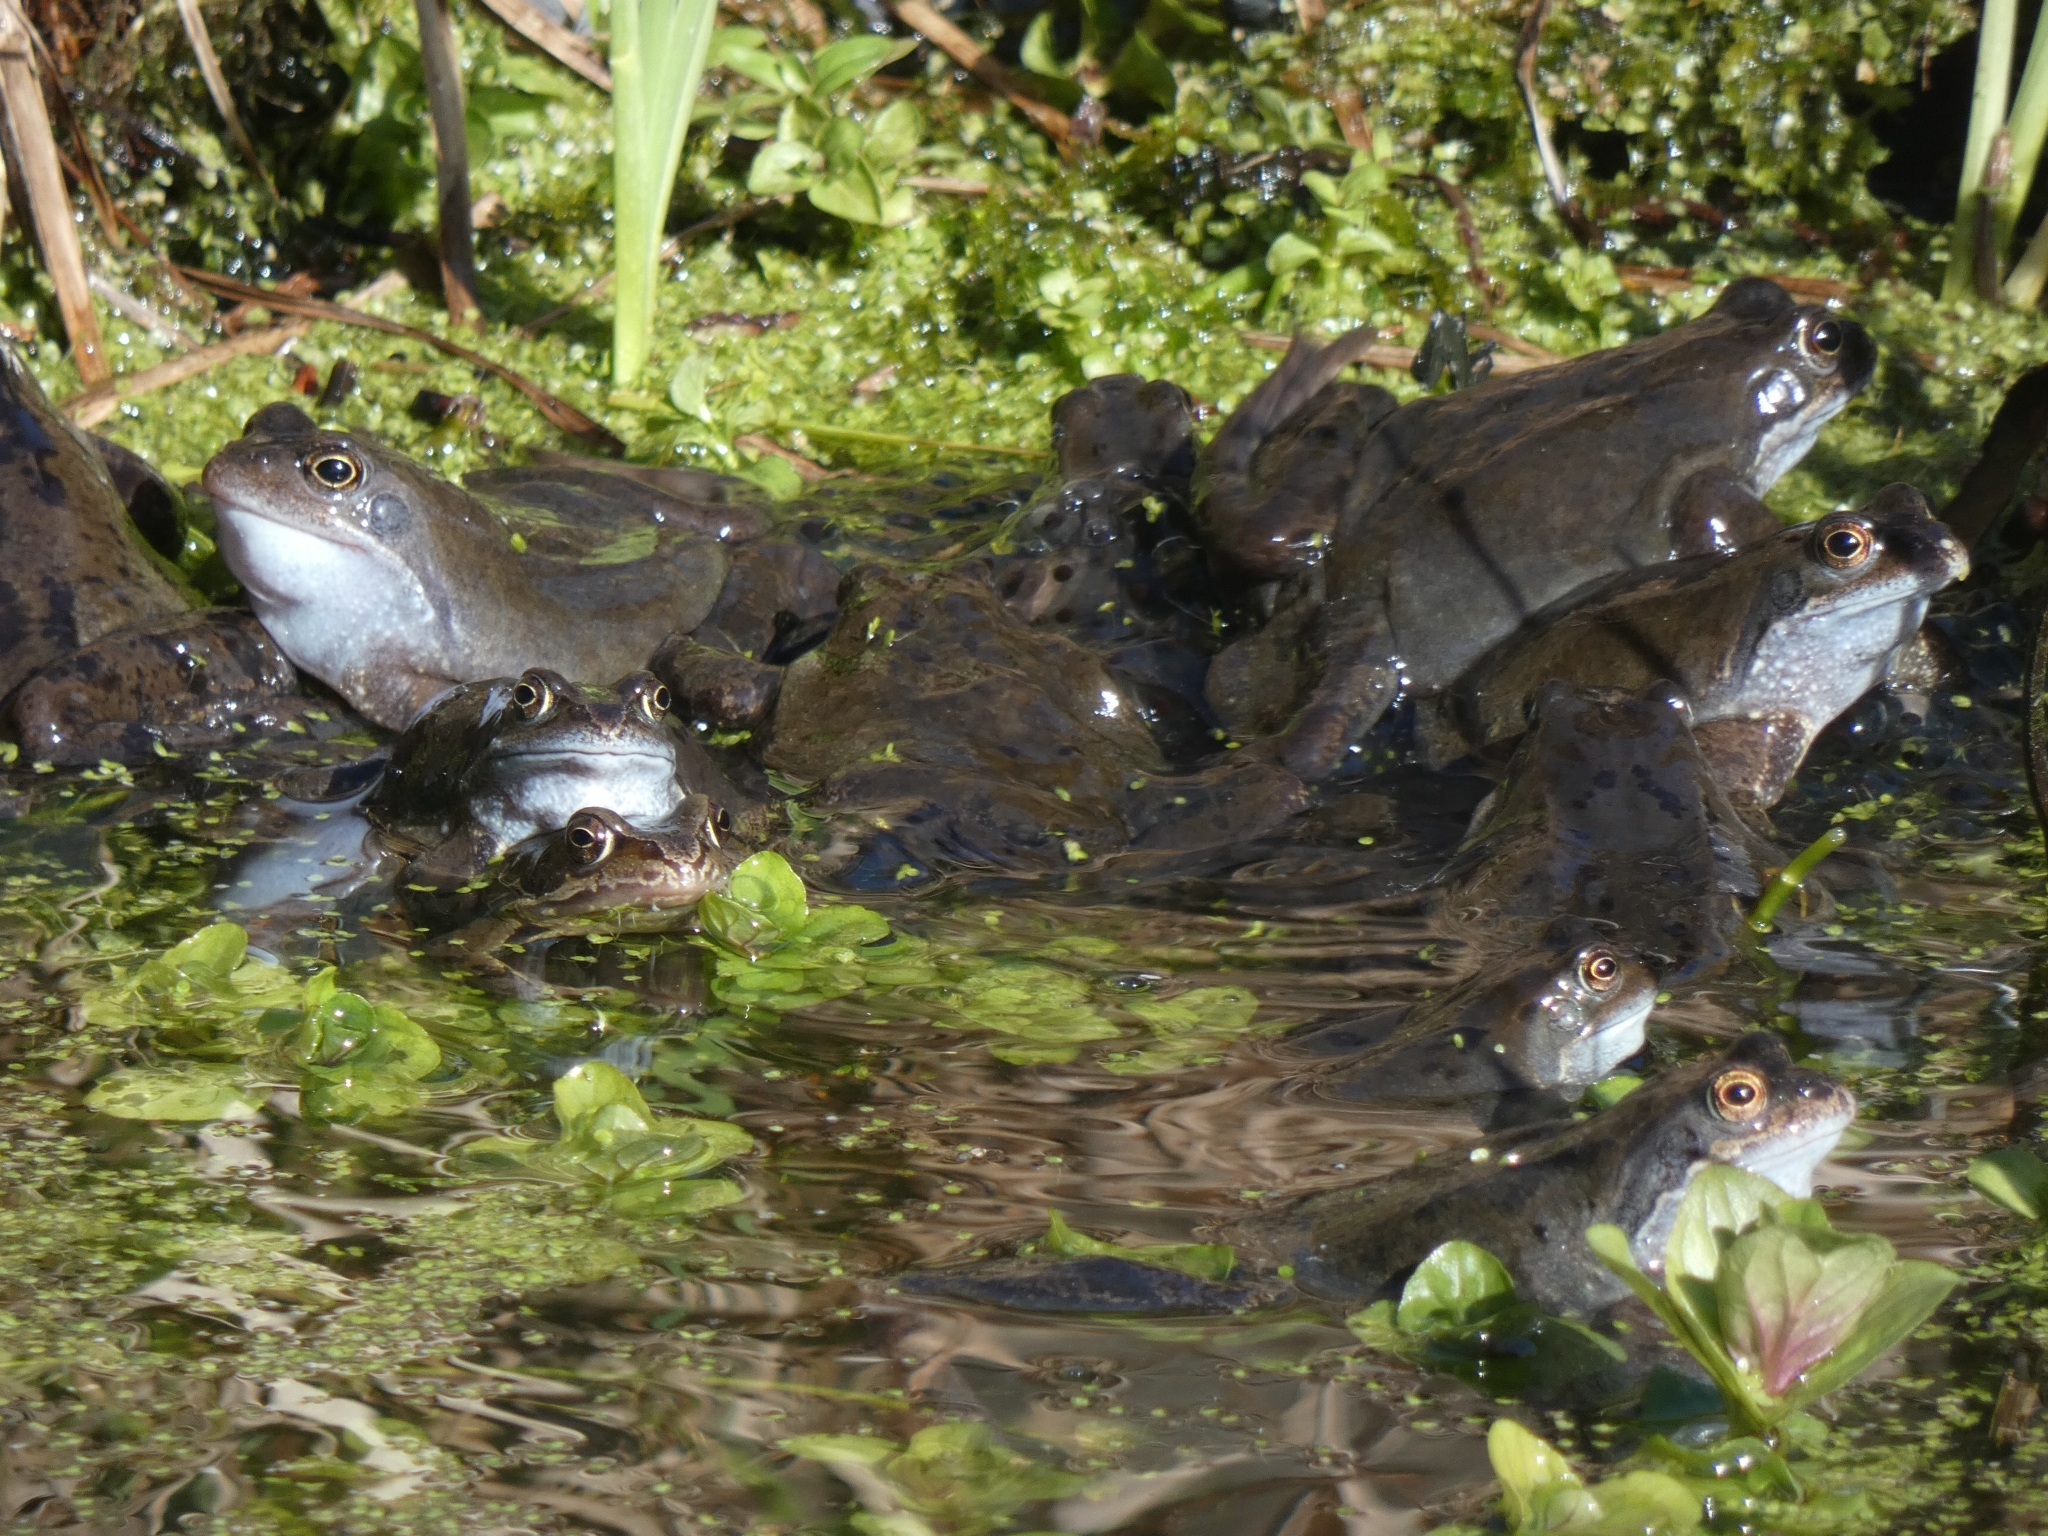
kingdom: Animalia
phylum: Chordata
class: Amphibia
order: Anura
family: Ranidae
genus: Rana
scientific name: Rana temporaria
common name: Common frog
